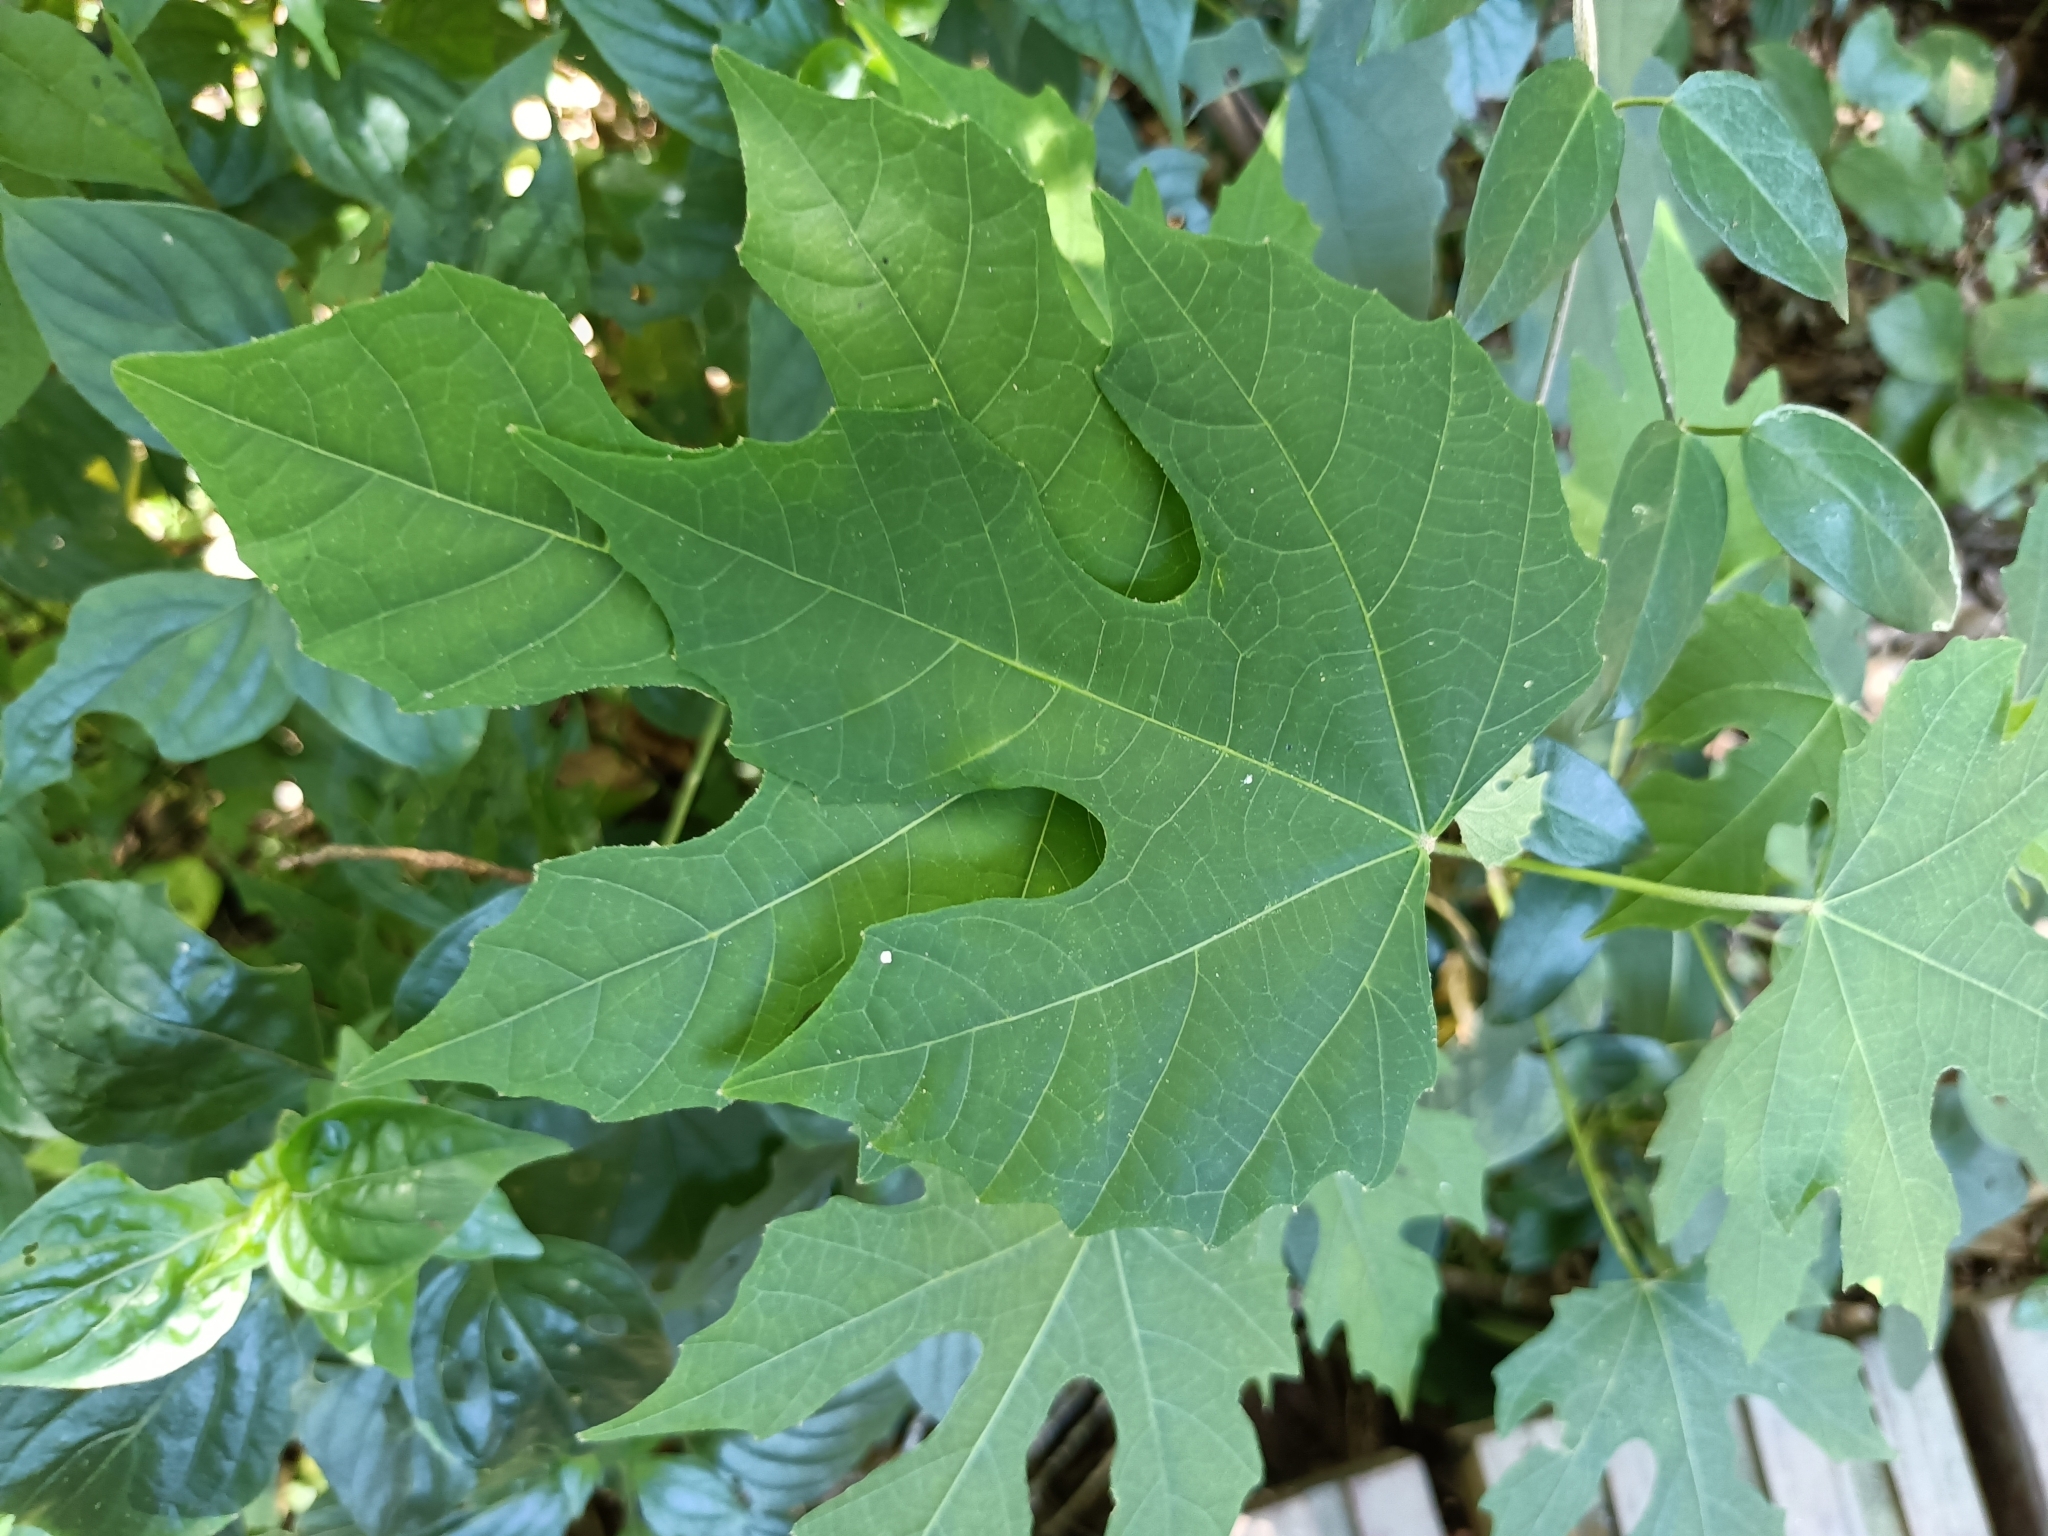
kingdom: Plantae
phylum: Tracheophyta
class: Magnoliopsida
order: Malpighiales
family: Euphorbiaceae
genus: Melanolepis
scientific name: Melanolepis multiglandulosa
